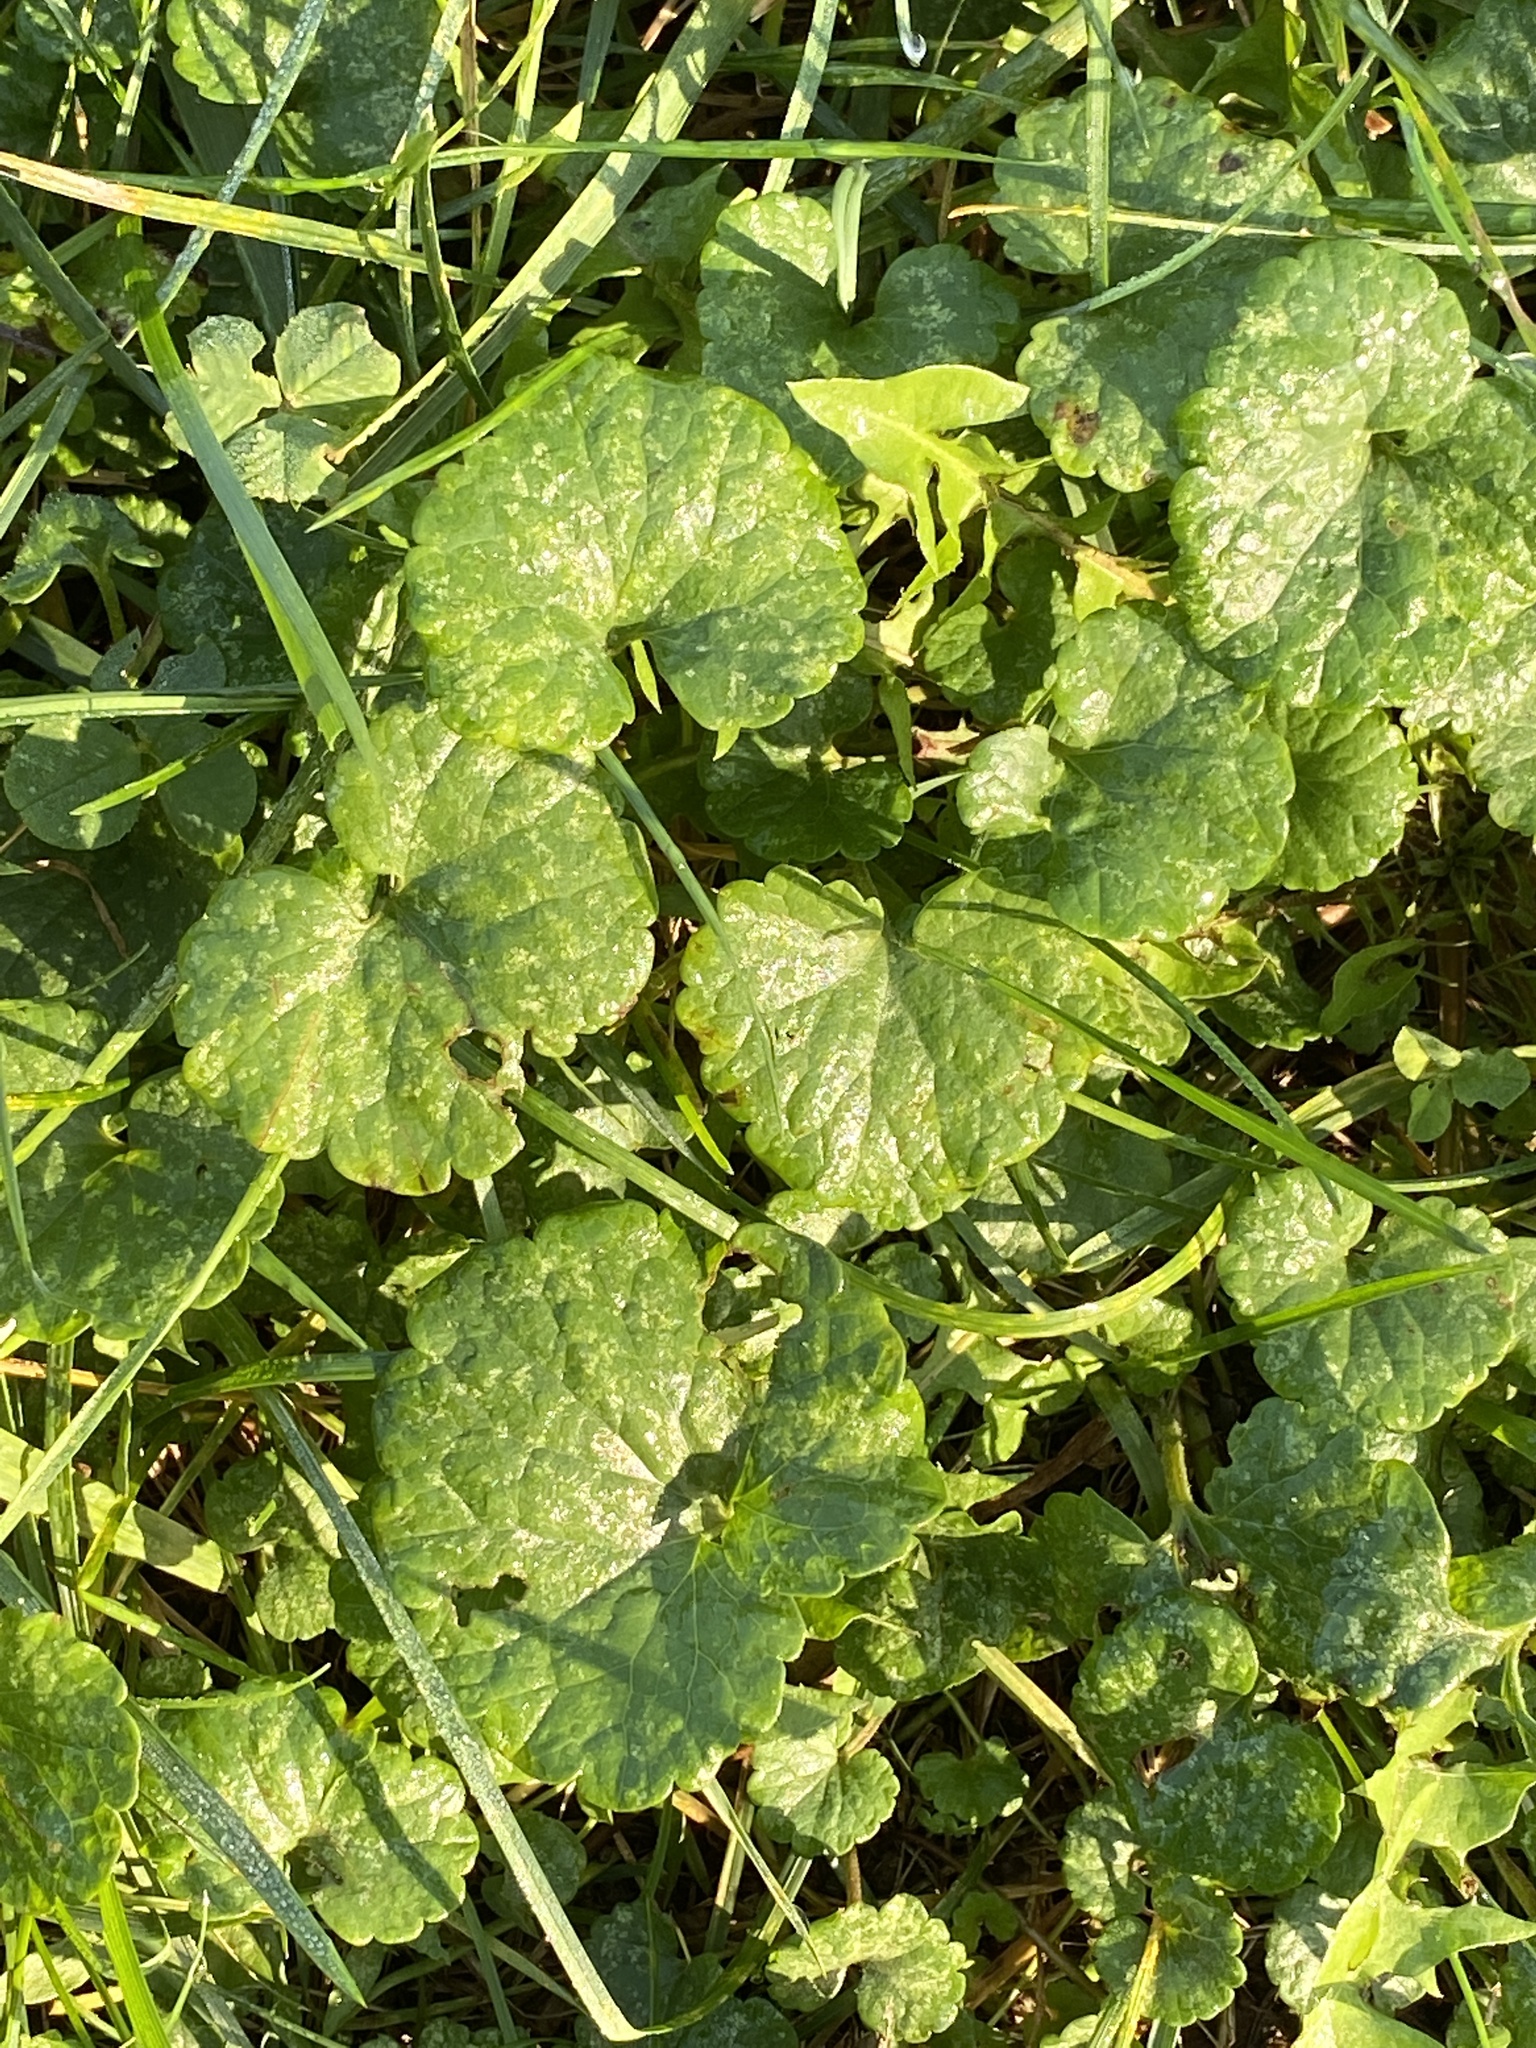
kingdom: Plantae
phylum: Tracheophyta
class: Magnoliopsida
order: Lamiales
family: Lamiaceae
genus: Glechoma
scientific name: Glechoma hederacea
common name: Ground ivy
